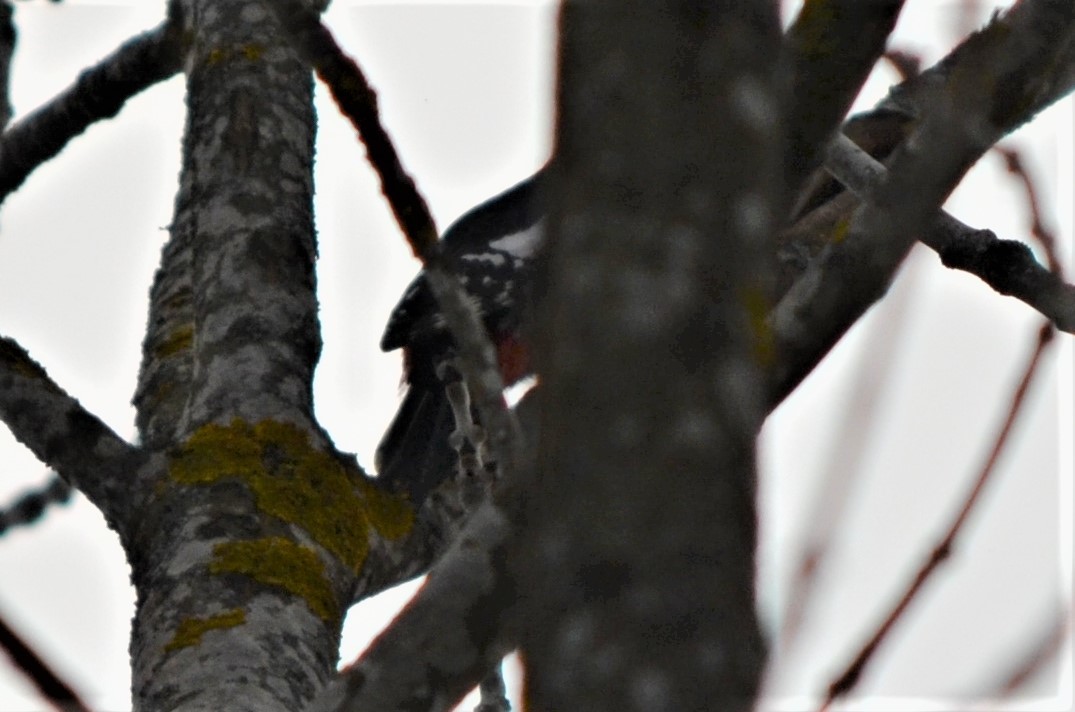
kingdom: Animalia
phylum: Chordata
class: Aves
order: Piciformes
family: Picidae
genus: Dendrocopos
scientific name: Dendrocopos major
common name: Great spotted woodpecker
